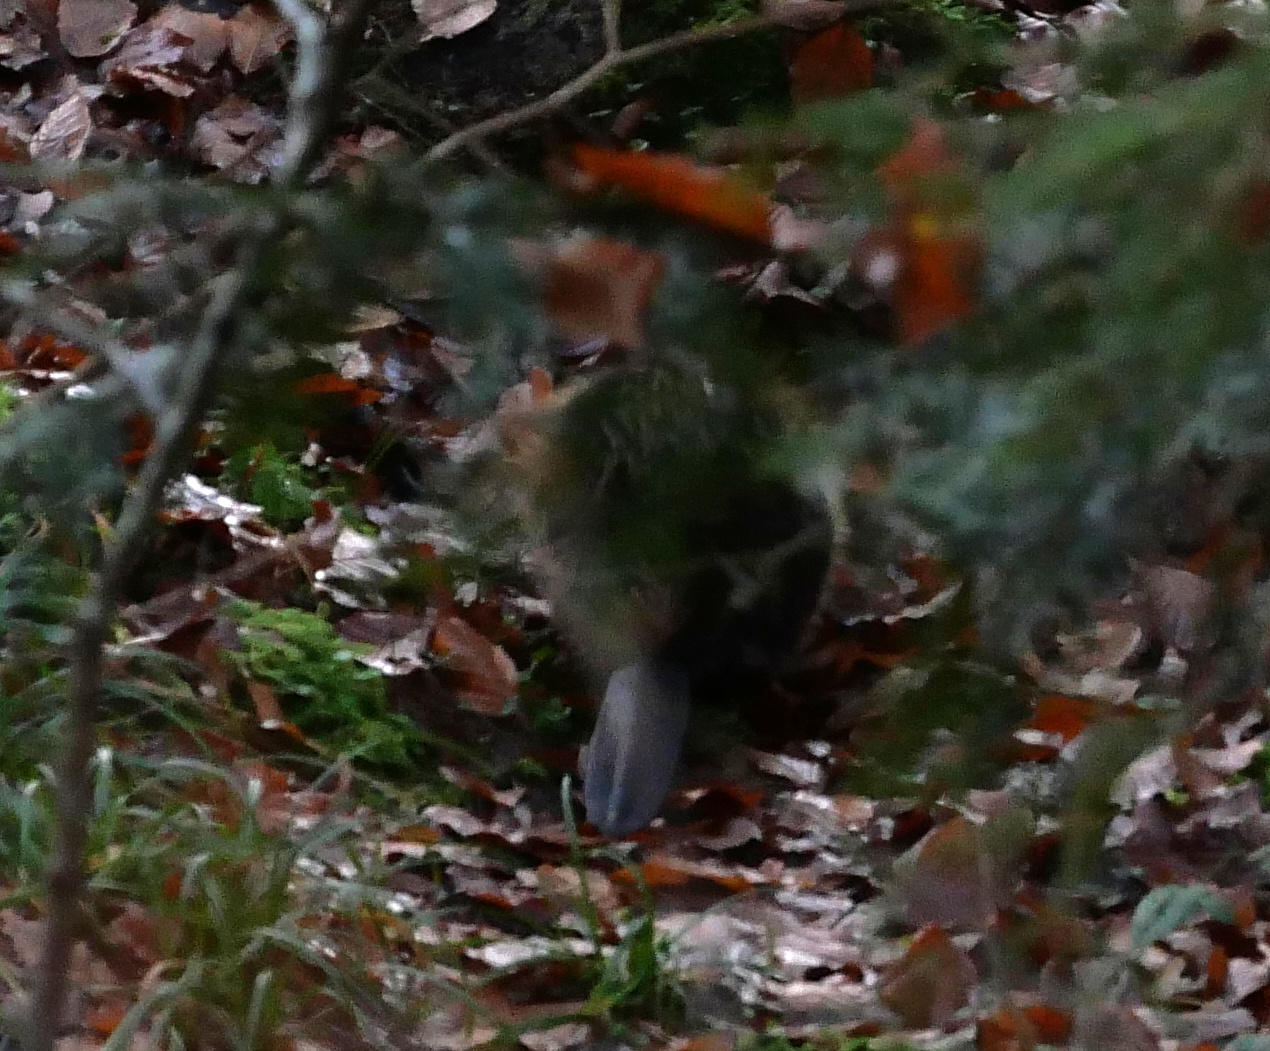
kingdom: Animalia
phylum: Chordata
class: Mammalia
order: Rodentia
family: Castoridae
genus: Castor
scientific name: Castor fiber
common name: Eurasian beaver
